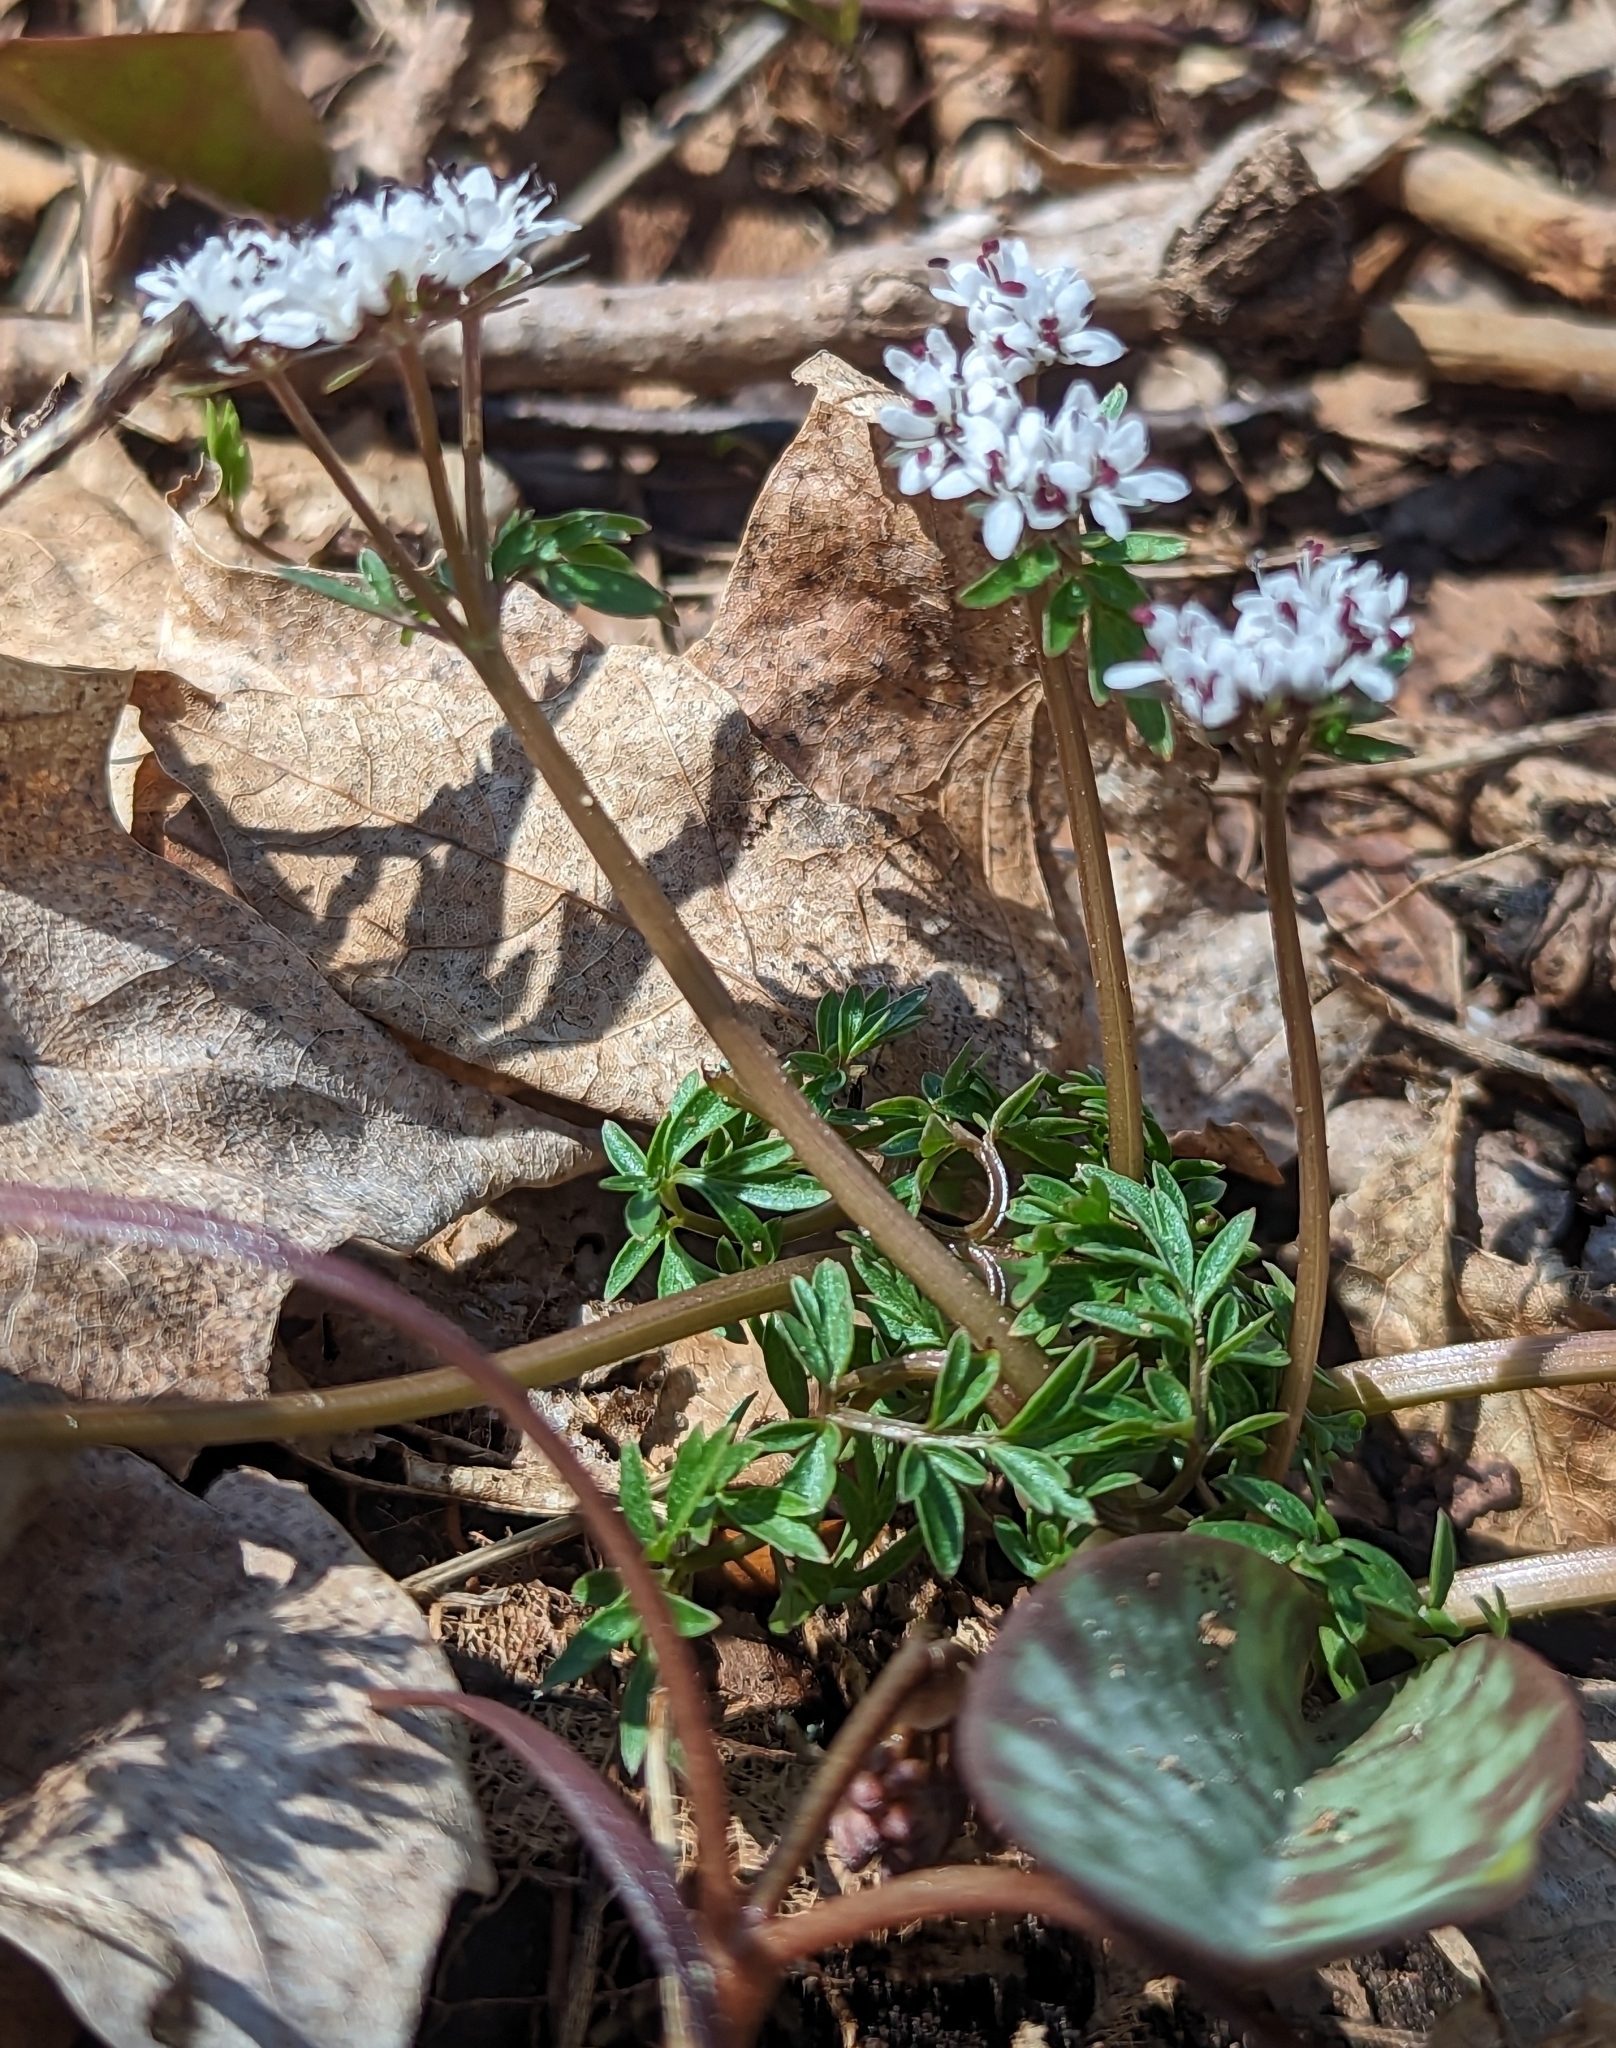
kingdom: Plantae
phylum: Tracheophyta
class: Magnoliopsida
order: Apiales
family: Apiaceae
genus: Erigenia
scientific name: Erigenia bulbosa
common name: Pepper-and-salt
